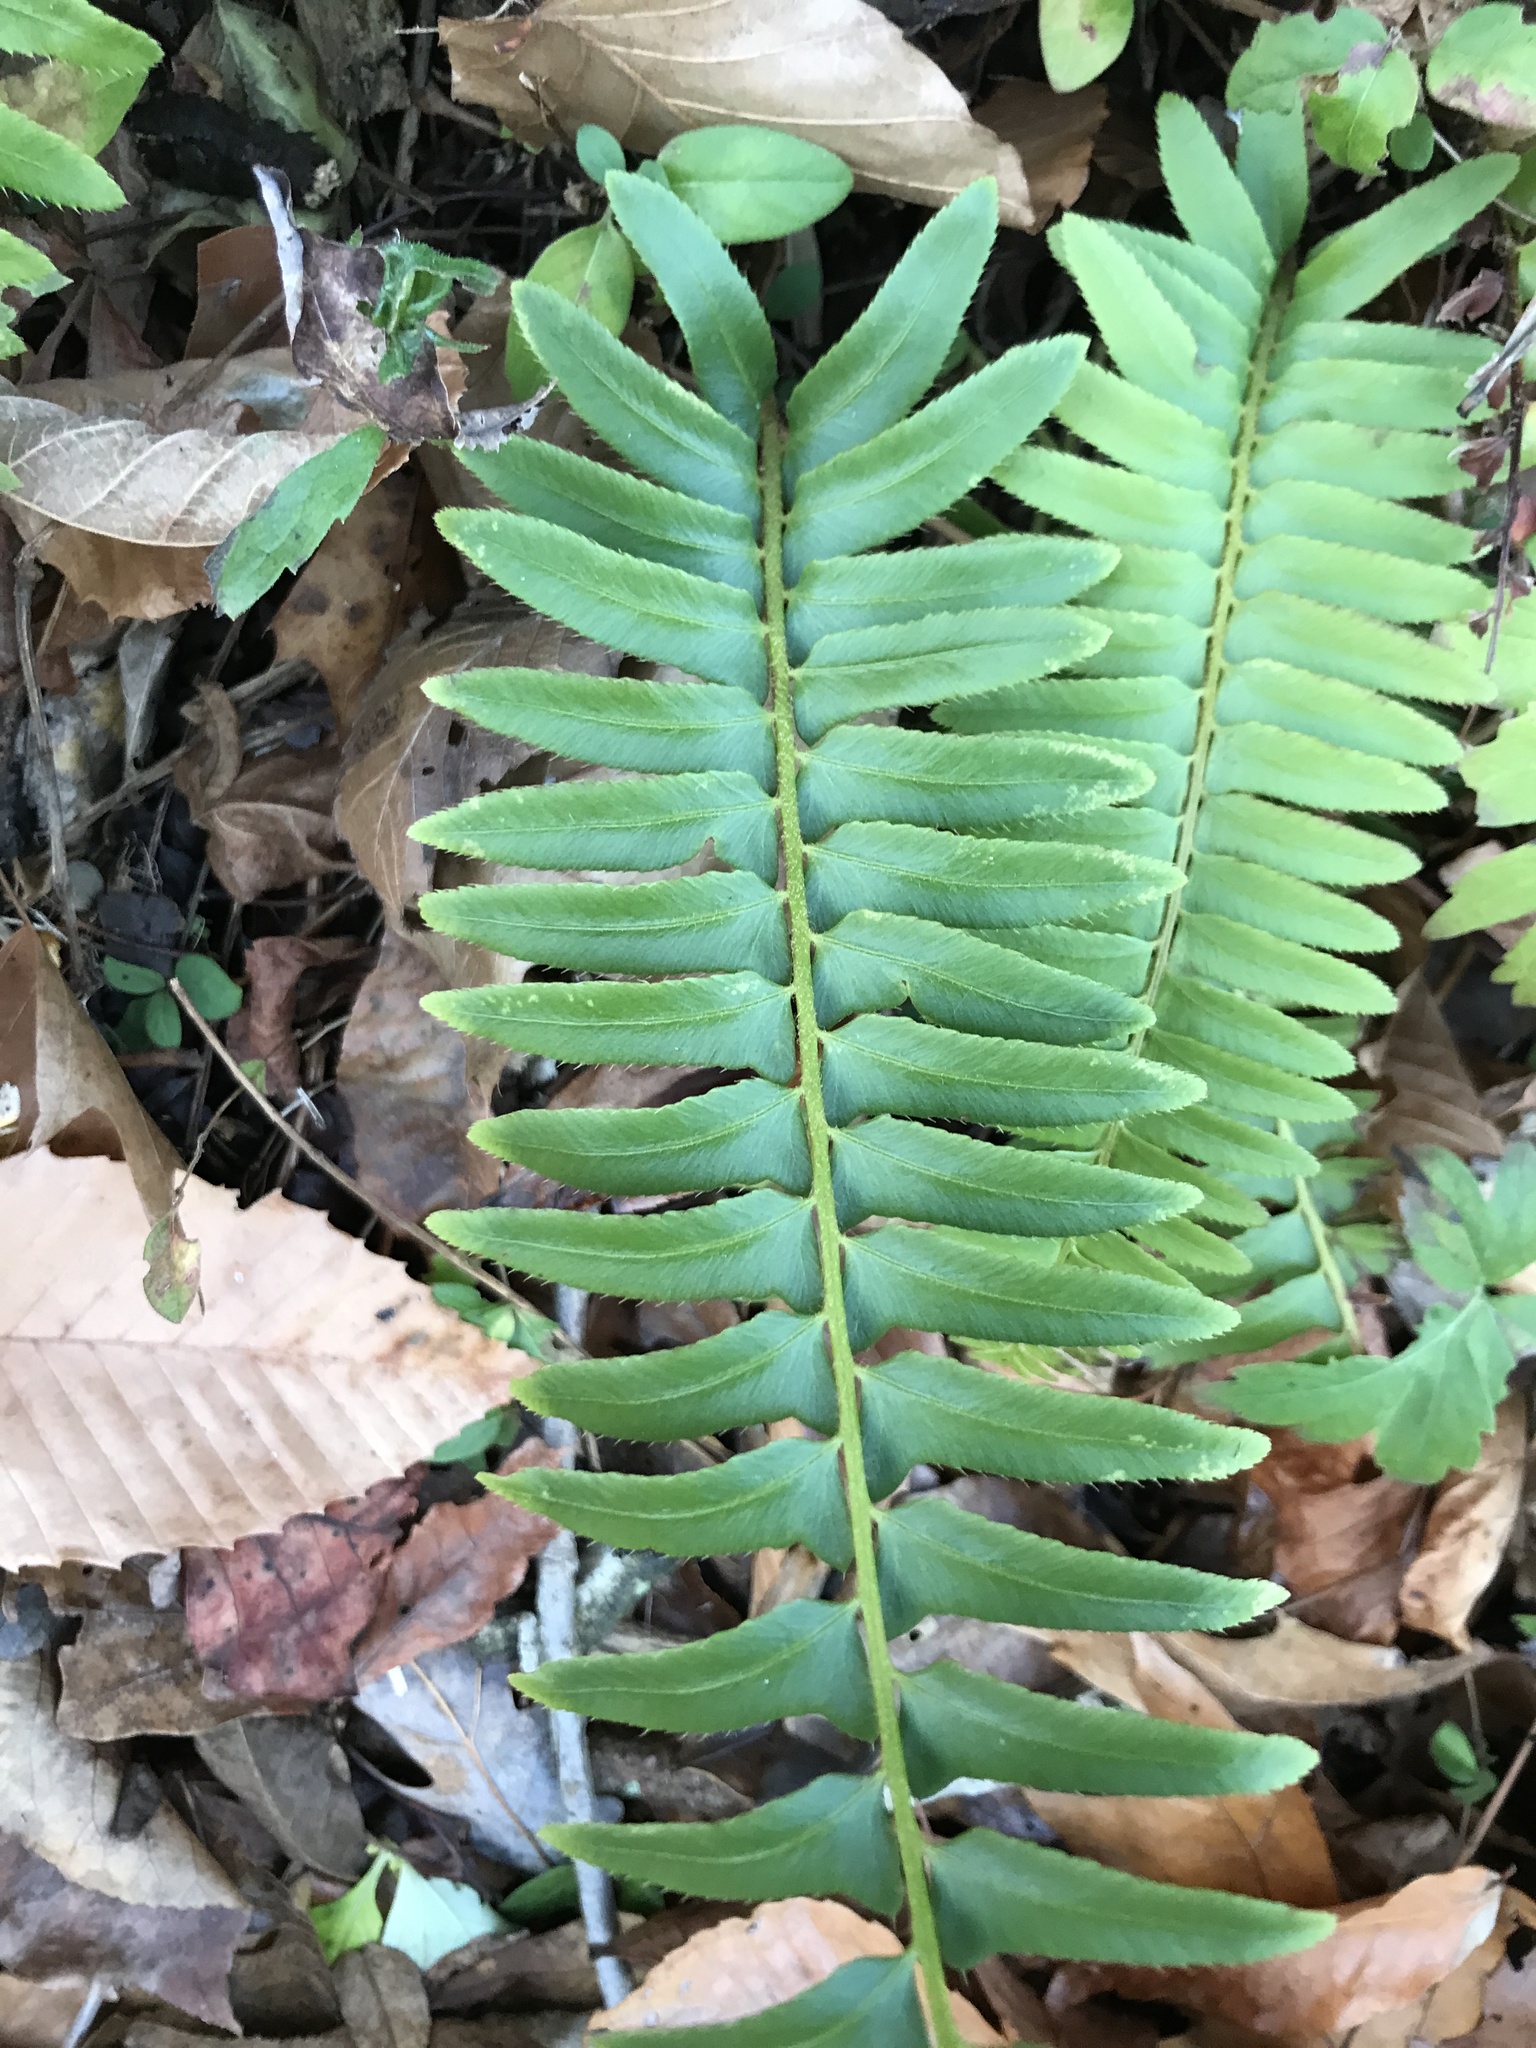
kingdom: Plantae
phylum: Tracheophyta
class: Polypodiopsida
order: Polypodiales
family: Dryopteridaceae
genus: Polystichum
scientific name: Polystichum acrostichoides
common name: Christmas fern
